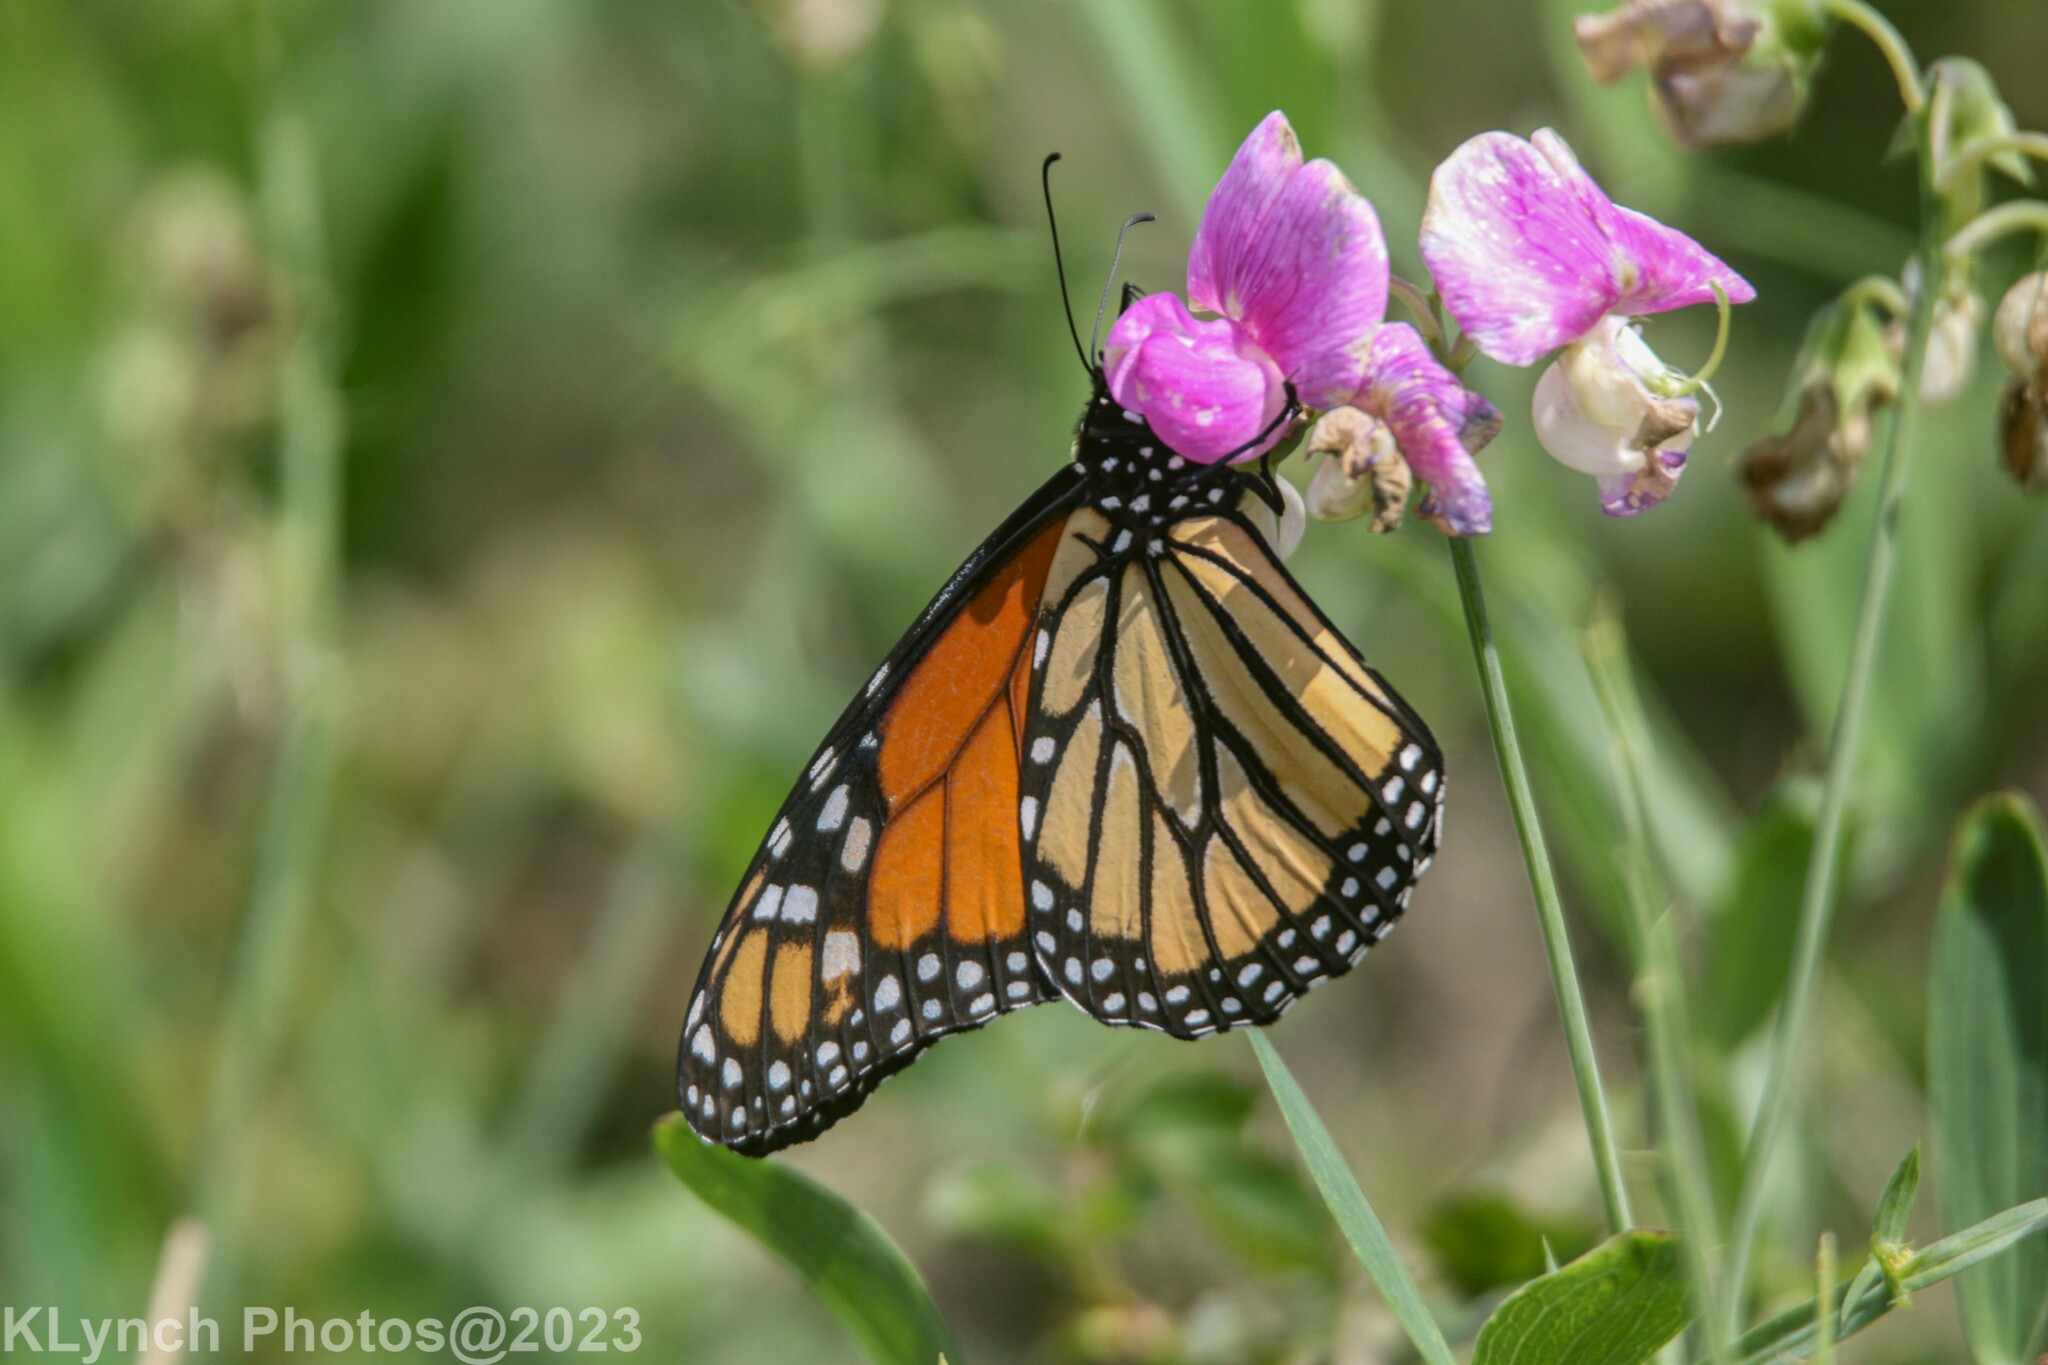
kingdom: Animalia
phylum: Arthropoda
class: Insecta
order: Lepidoptera
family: Nymphalidae
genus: Danaus
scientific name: Danaus plexippus
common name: Monarch
